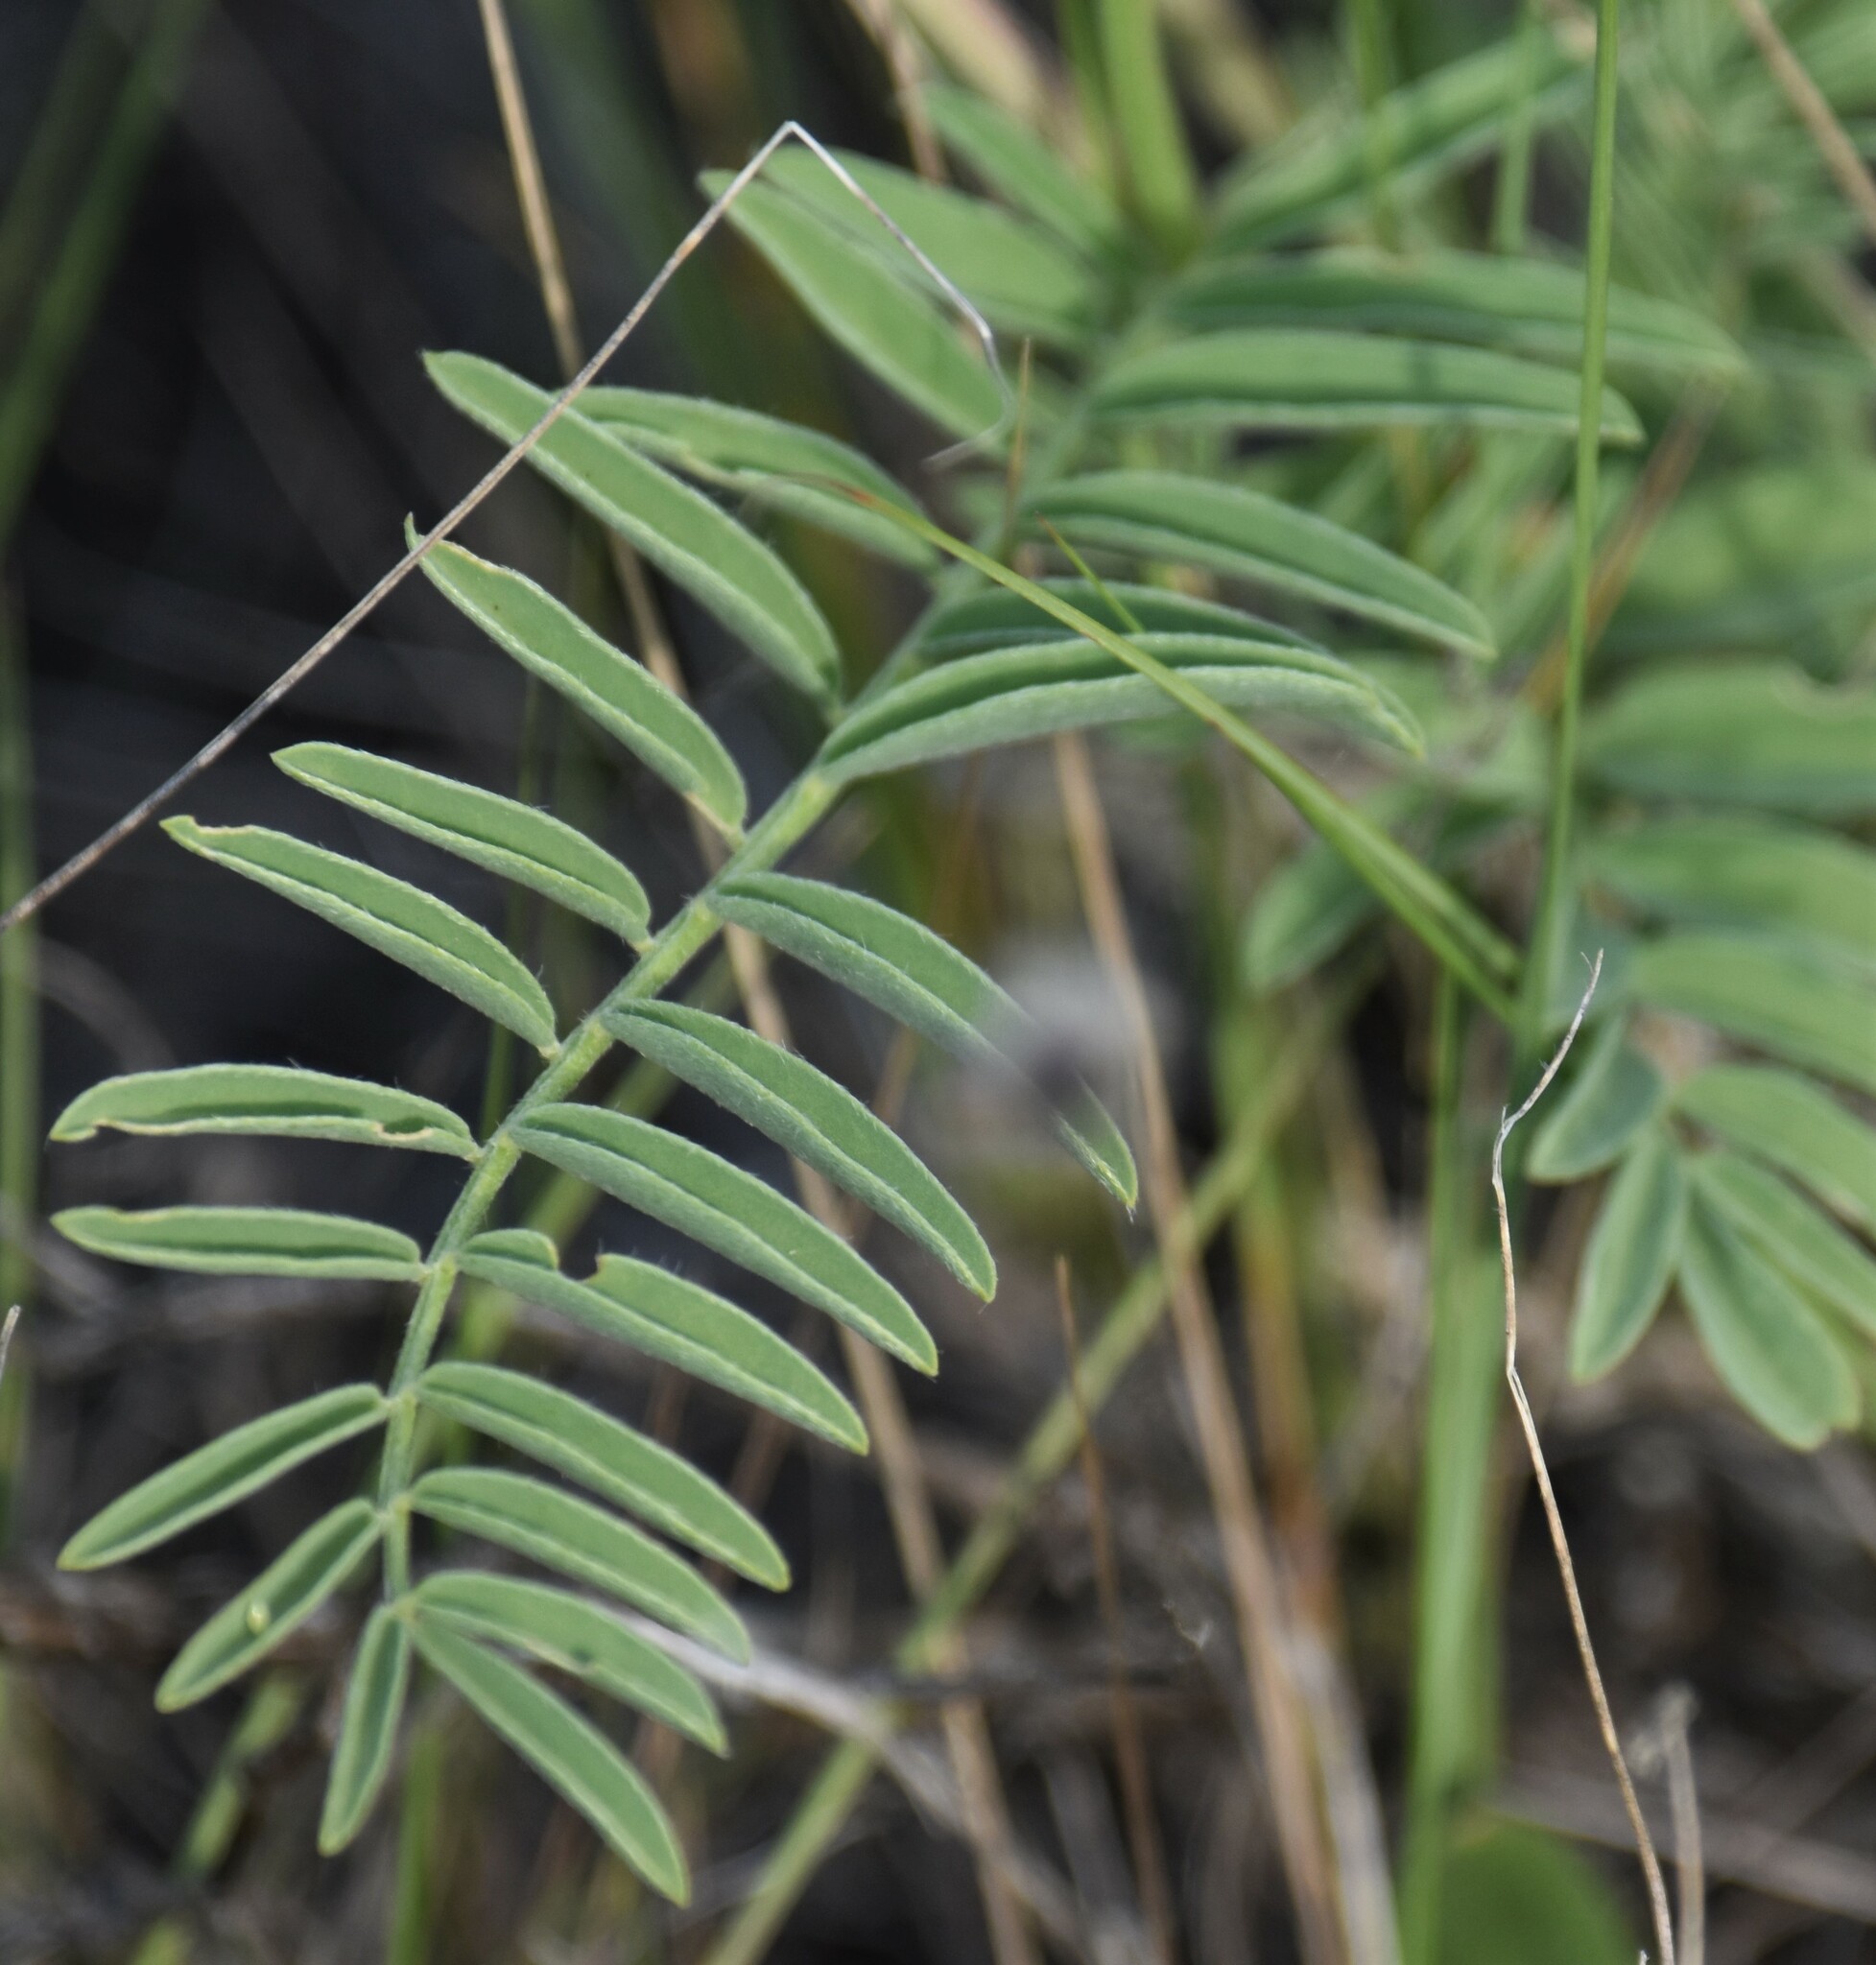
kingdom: Plantae
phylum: Tracheophyta
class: Magnoliopsida
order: Fabales
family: Fabaceae
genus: Astragalus
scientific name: Astragalus bisulcatus
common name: Two-groove milk-vetch
